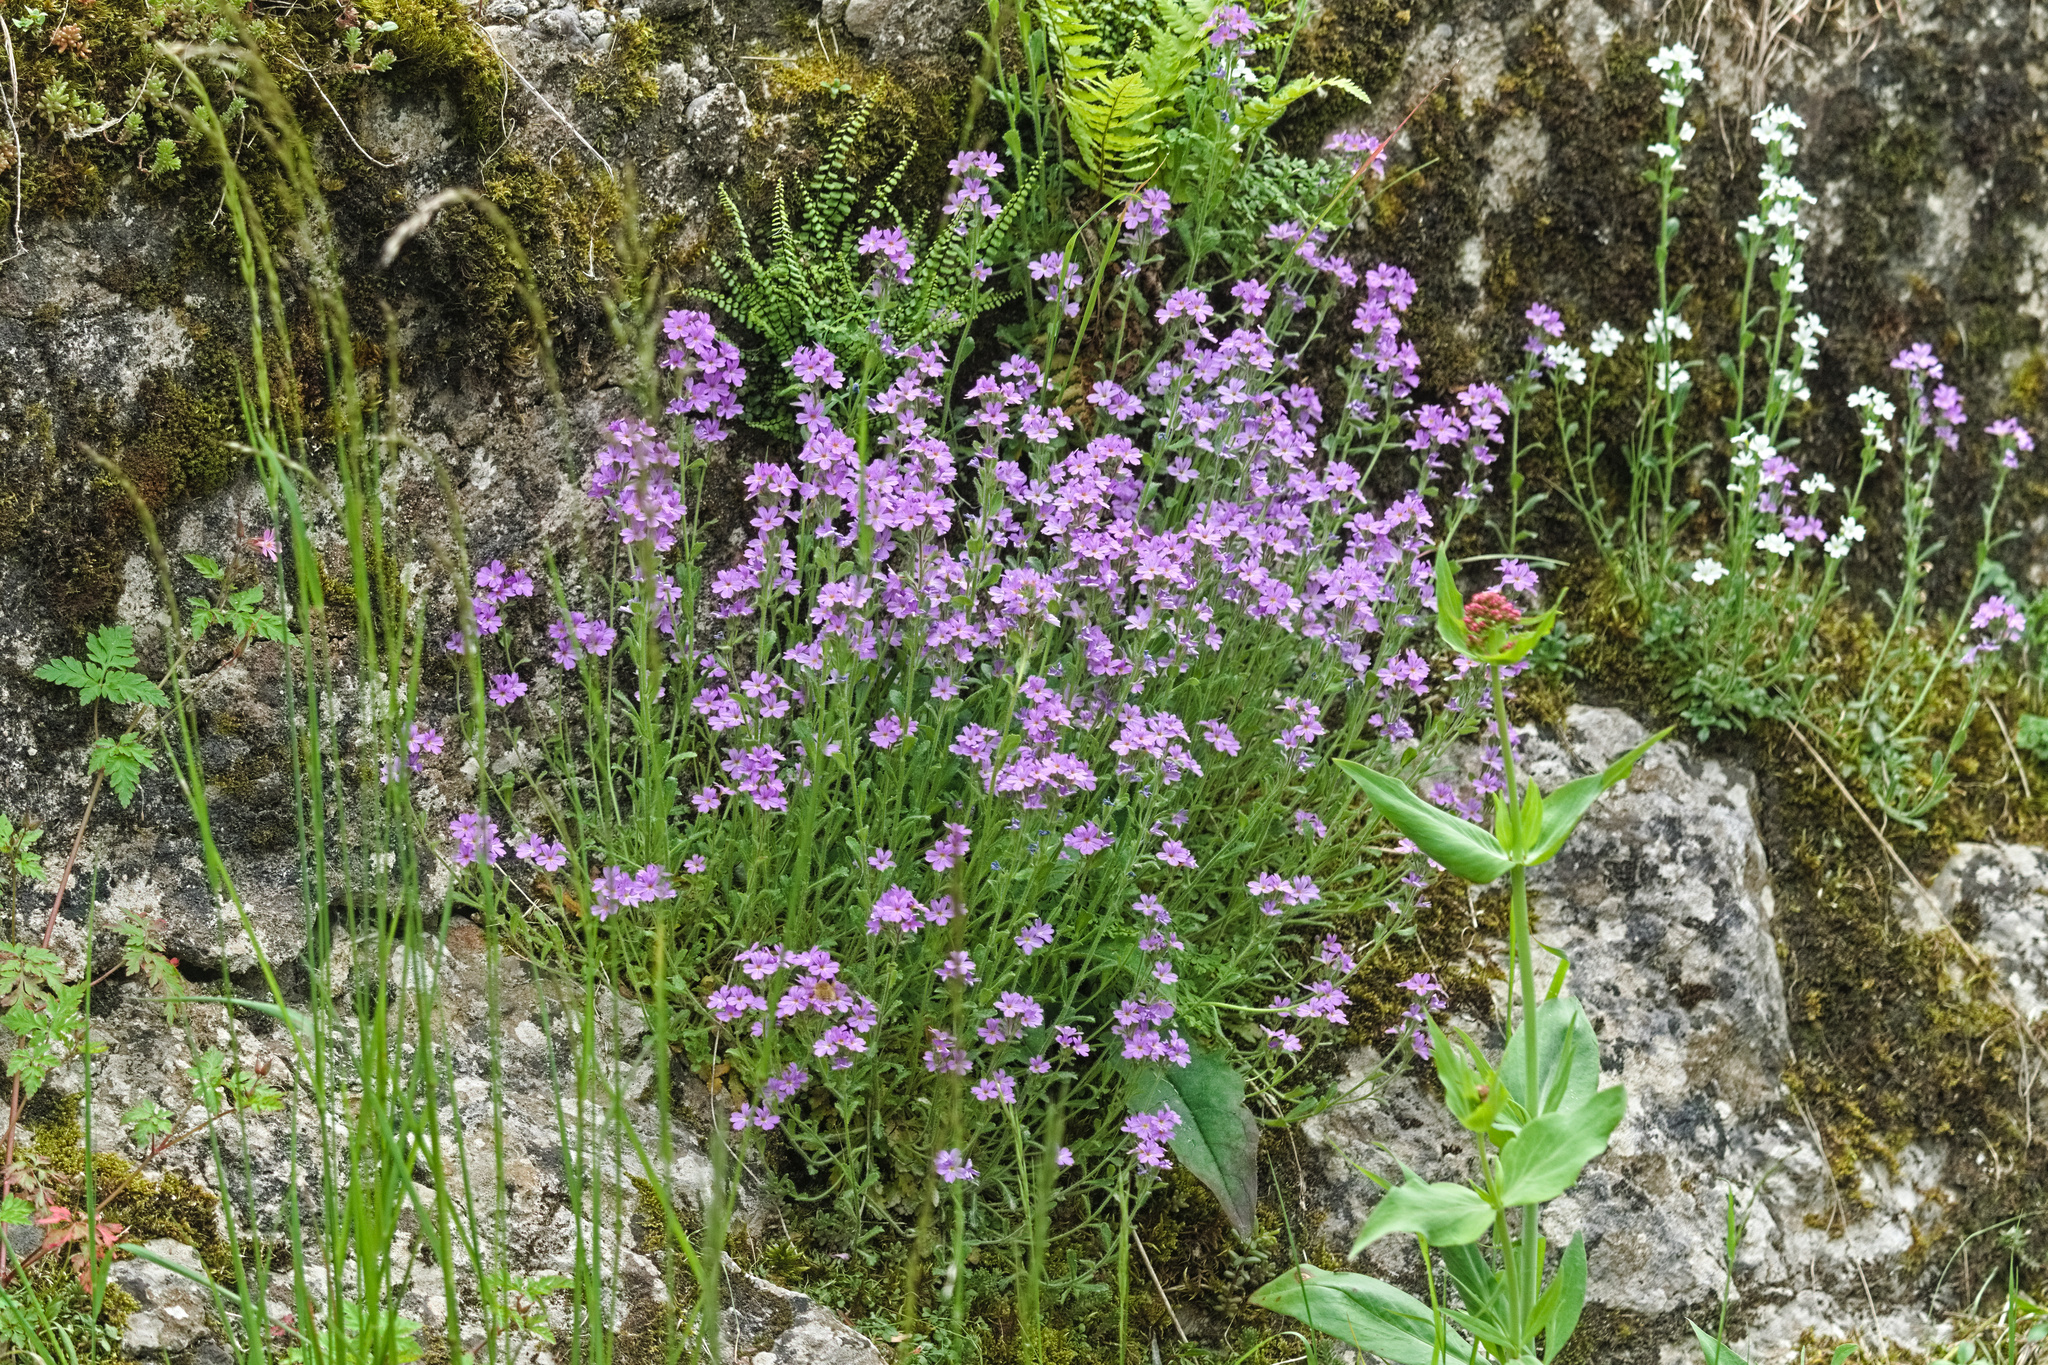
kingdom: Plantae
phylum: Tracheophyta
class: Magnoliopsida
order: Lamiales
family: Plantaginaceae
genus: Erinus
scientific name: Erinus alpinus
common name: Fairy foxglove
